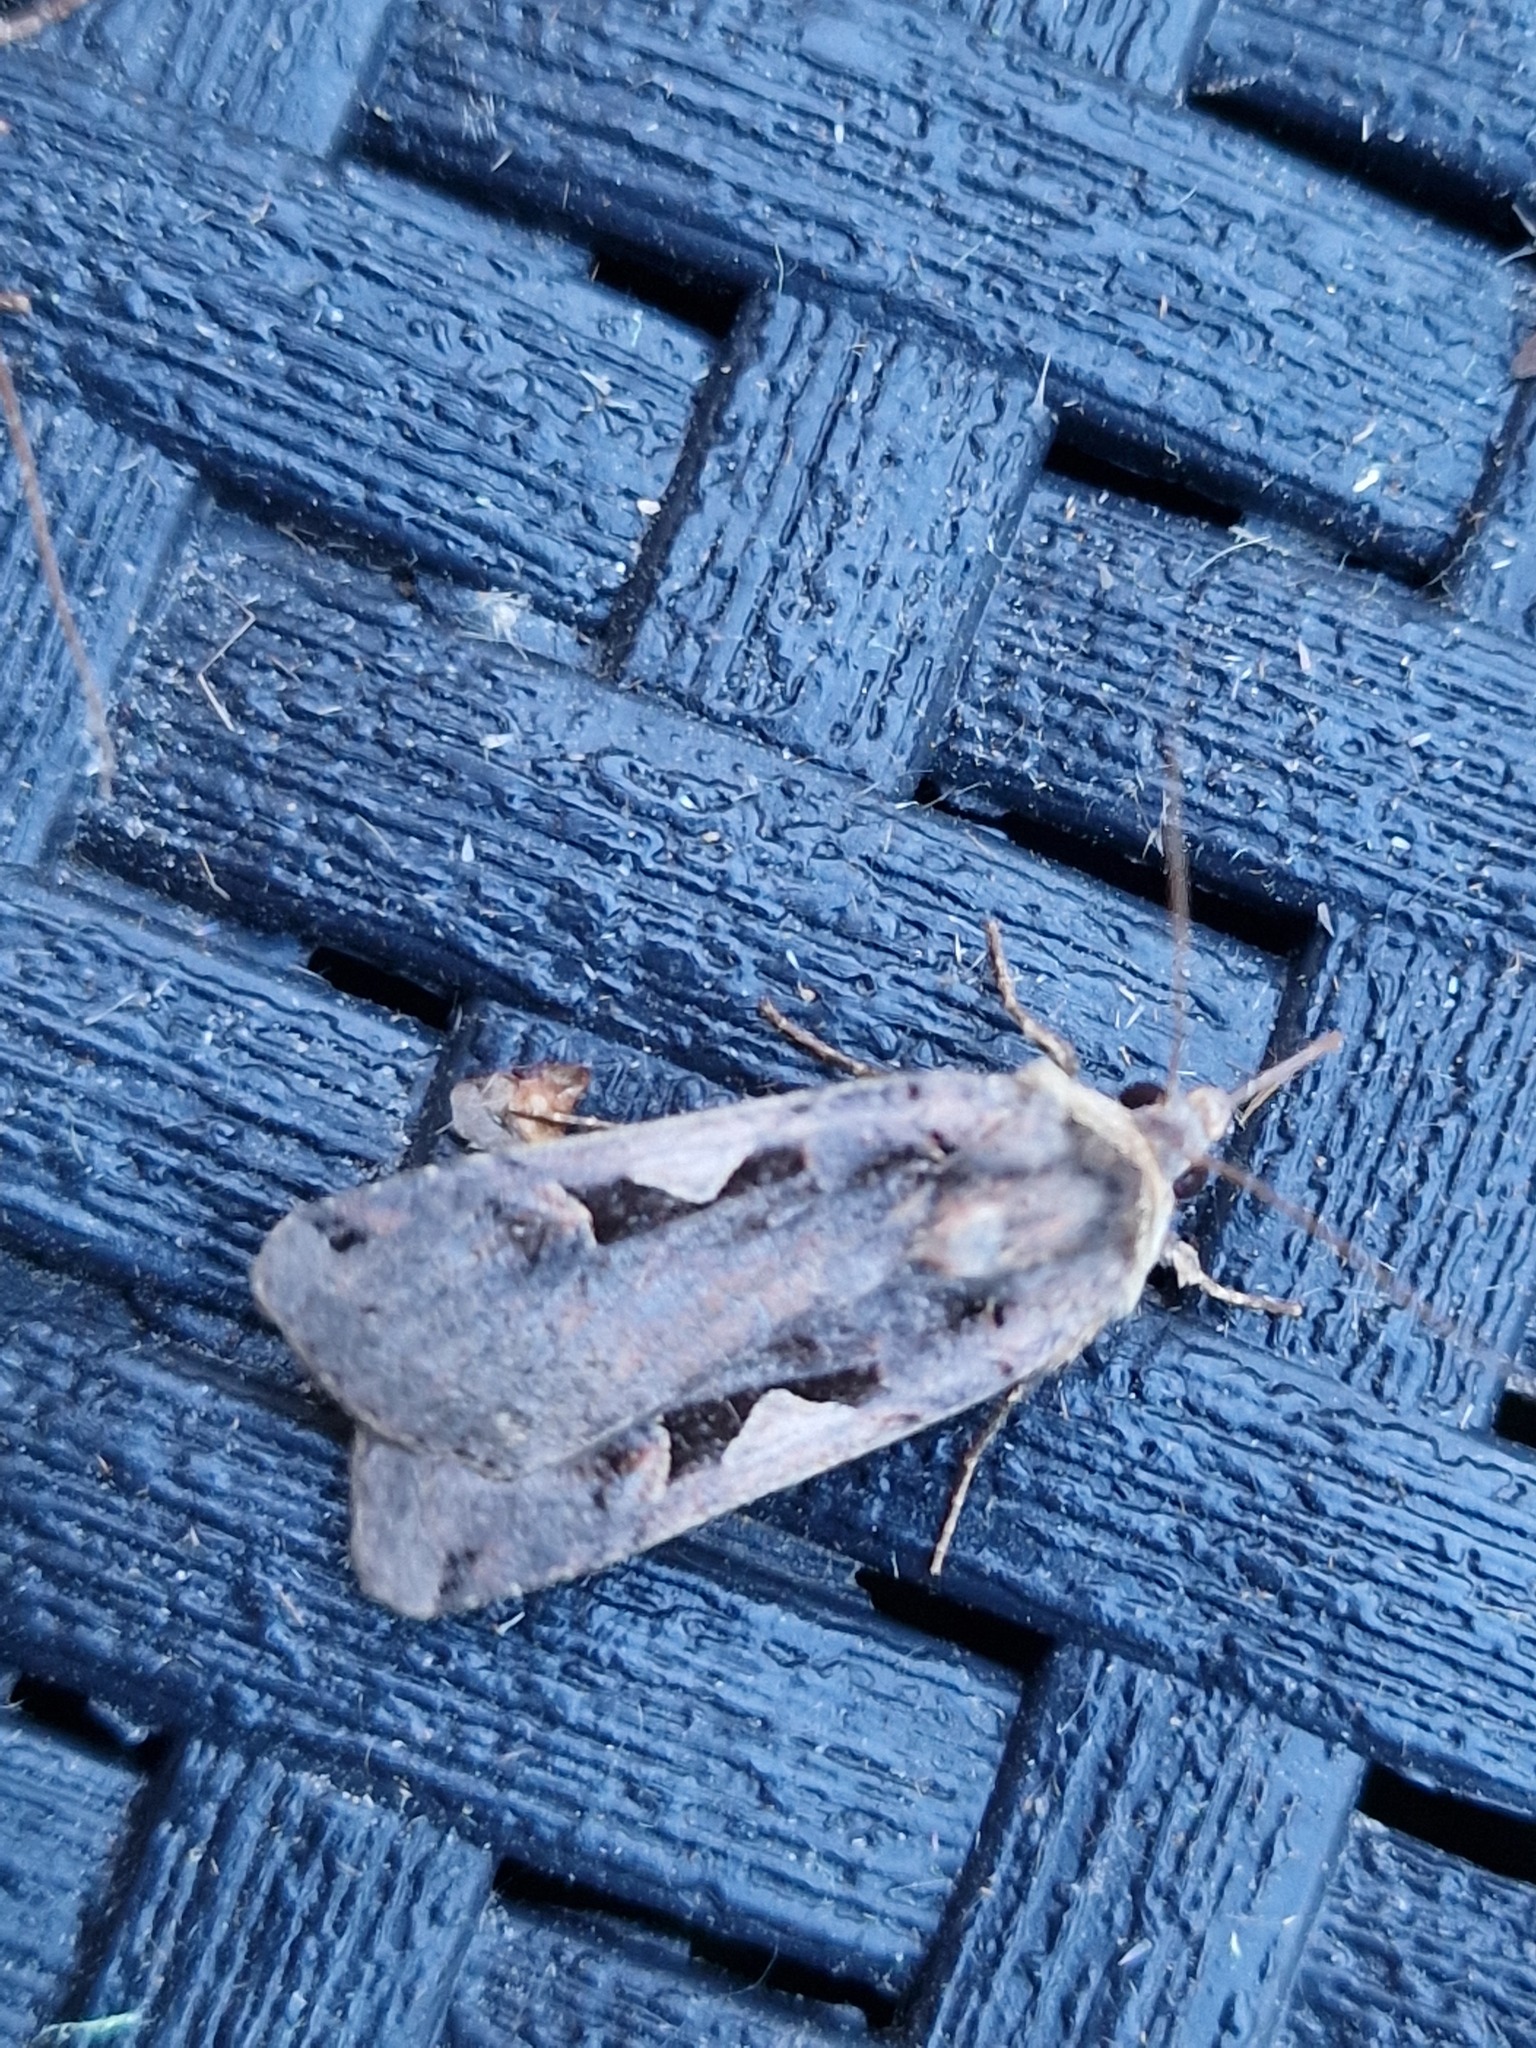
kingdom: Animalia
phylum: Arthropoda
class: Insecta
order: Lepidoptera
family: Noctuidae
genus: Xestia
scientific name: Xestia c-nigrum
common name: Setaceous hebrew character
